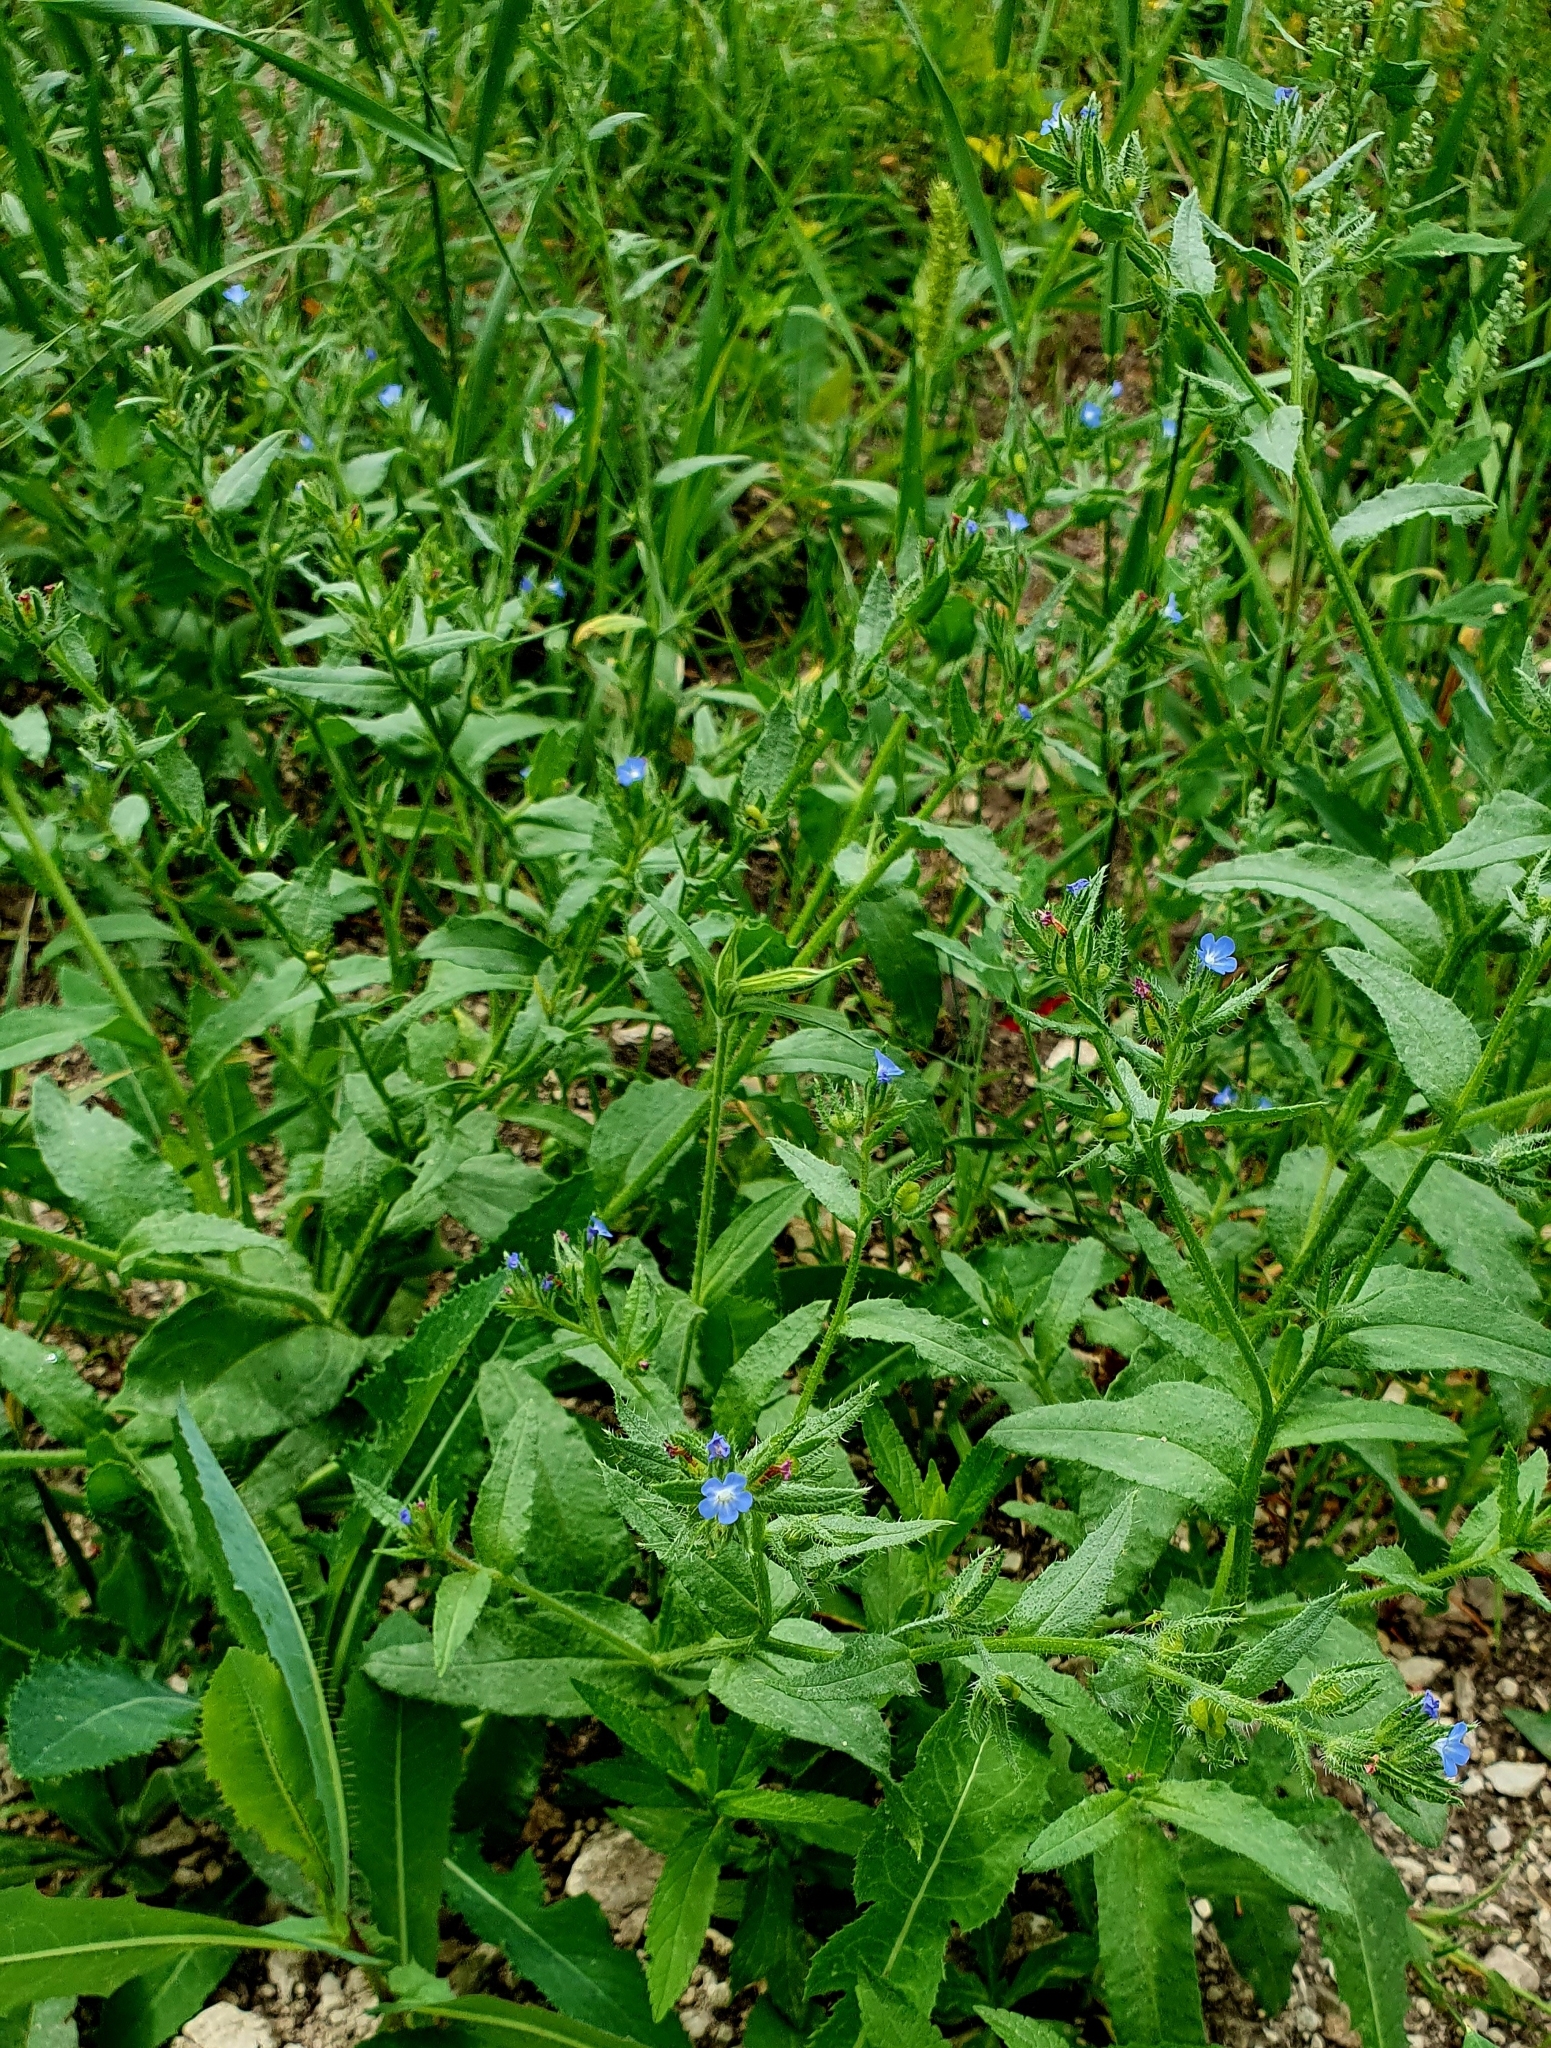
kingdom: Plantae
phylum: Tracheophyta
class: Magnoliopsida
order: Boraginales
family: Boraginaceae
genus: Lycopsis
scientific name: Lycopsis arvensis
